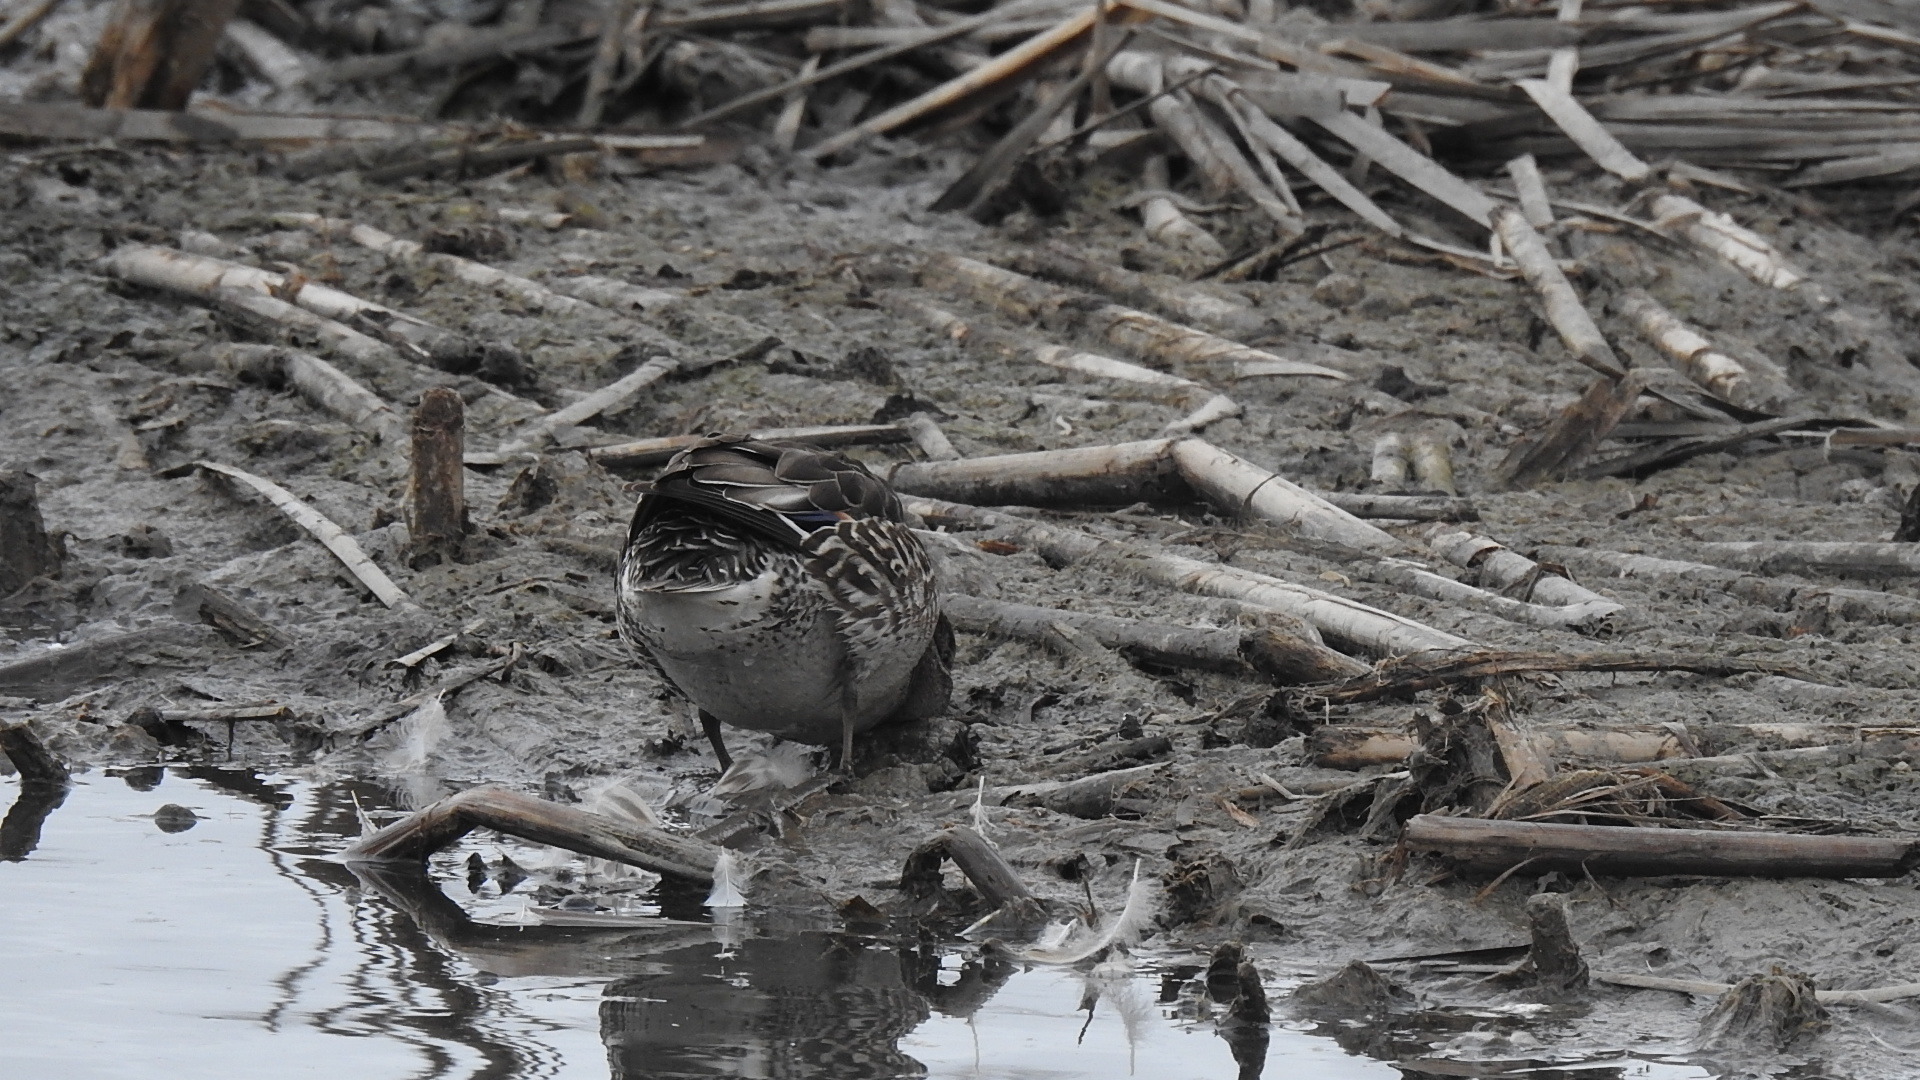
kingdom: Animalia
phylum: Chordata
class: Aves
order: Anseriformes
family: Anatidae
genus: Anas
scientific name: Anas crecca
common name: Eurasian teal
